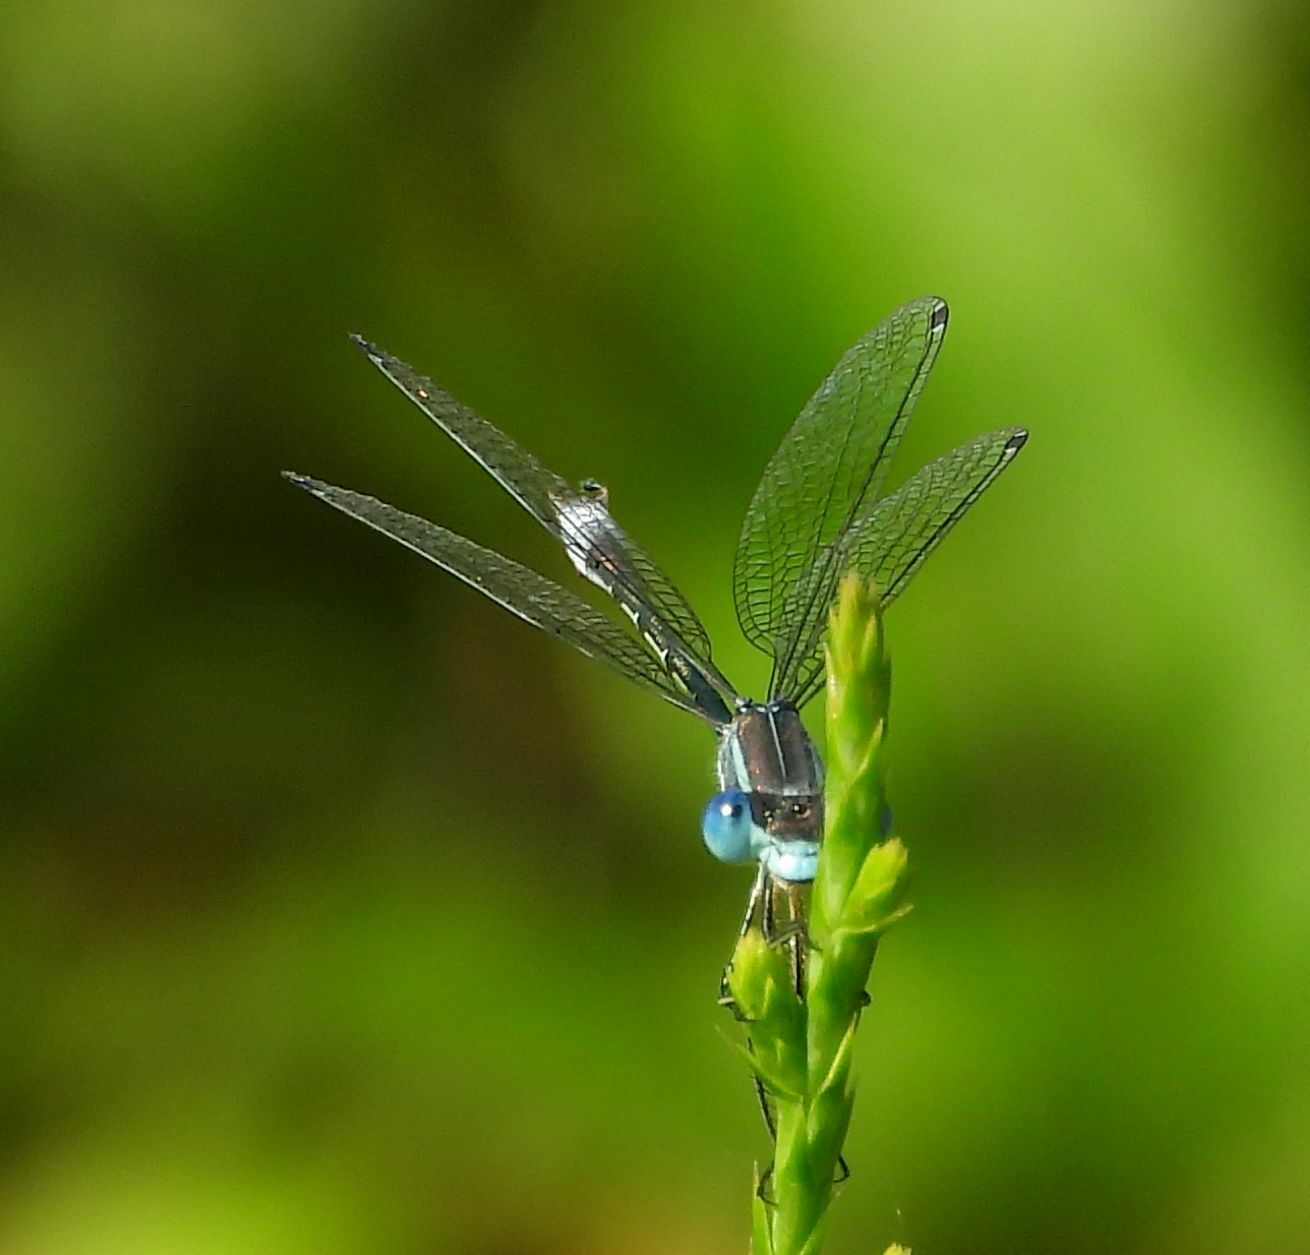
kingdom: Animalia
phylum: Arthropoda
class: Insecta
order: Odonata
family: Lestidae
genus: Lestes
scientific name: Lestes unguiculatus
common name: Lyre-tipped spreadwing
